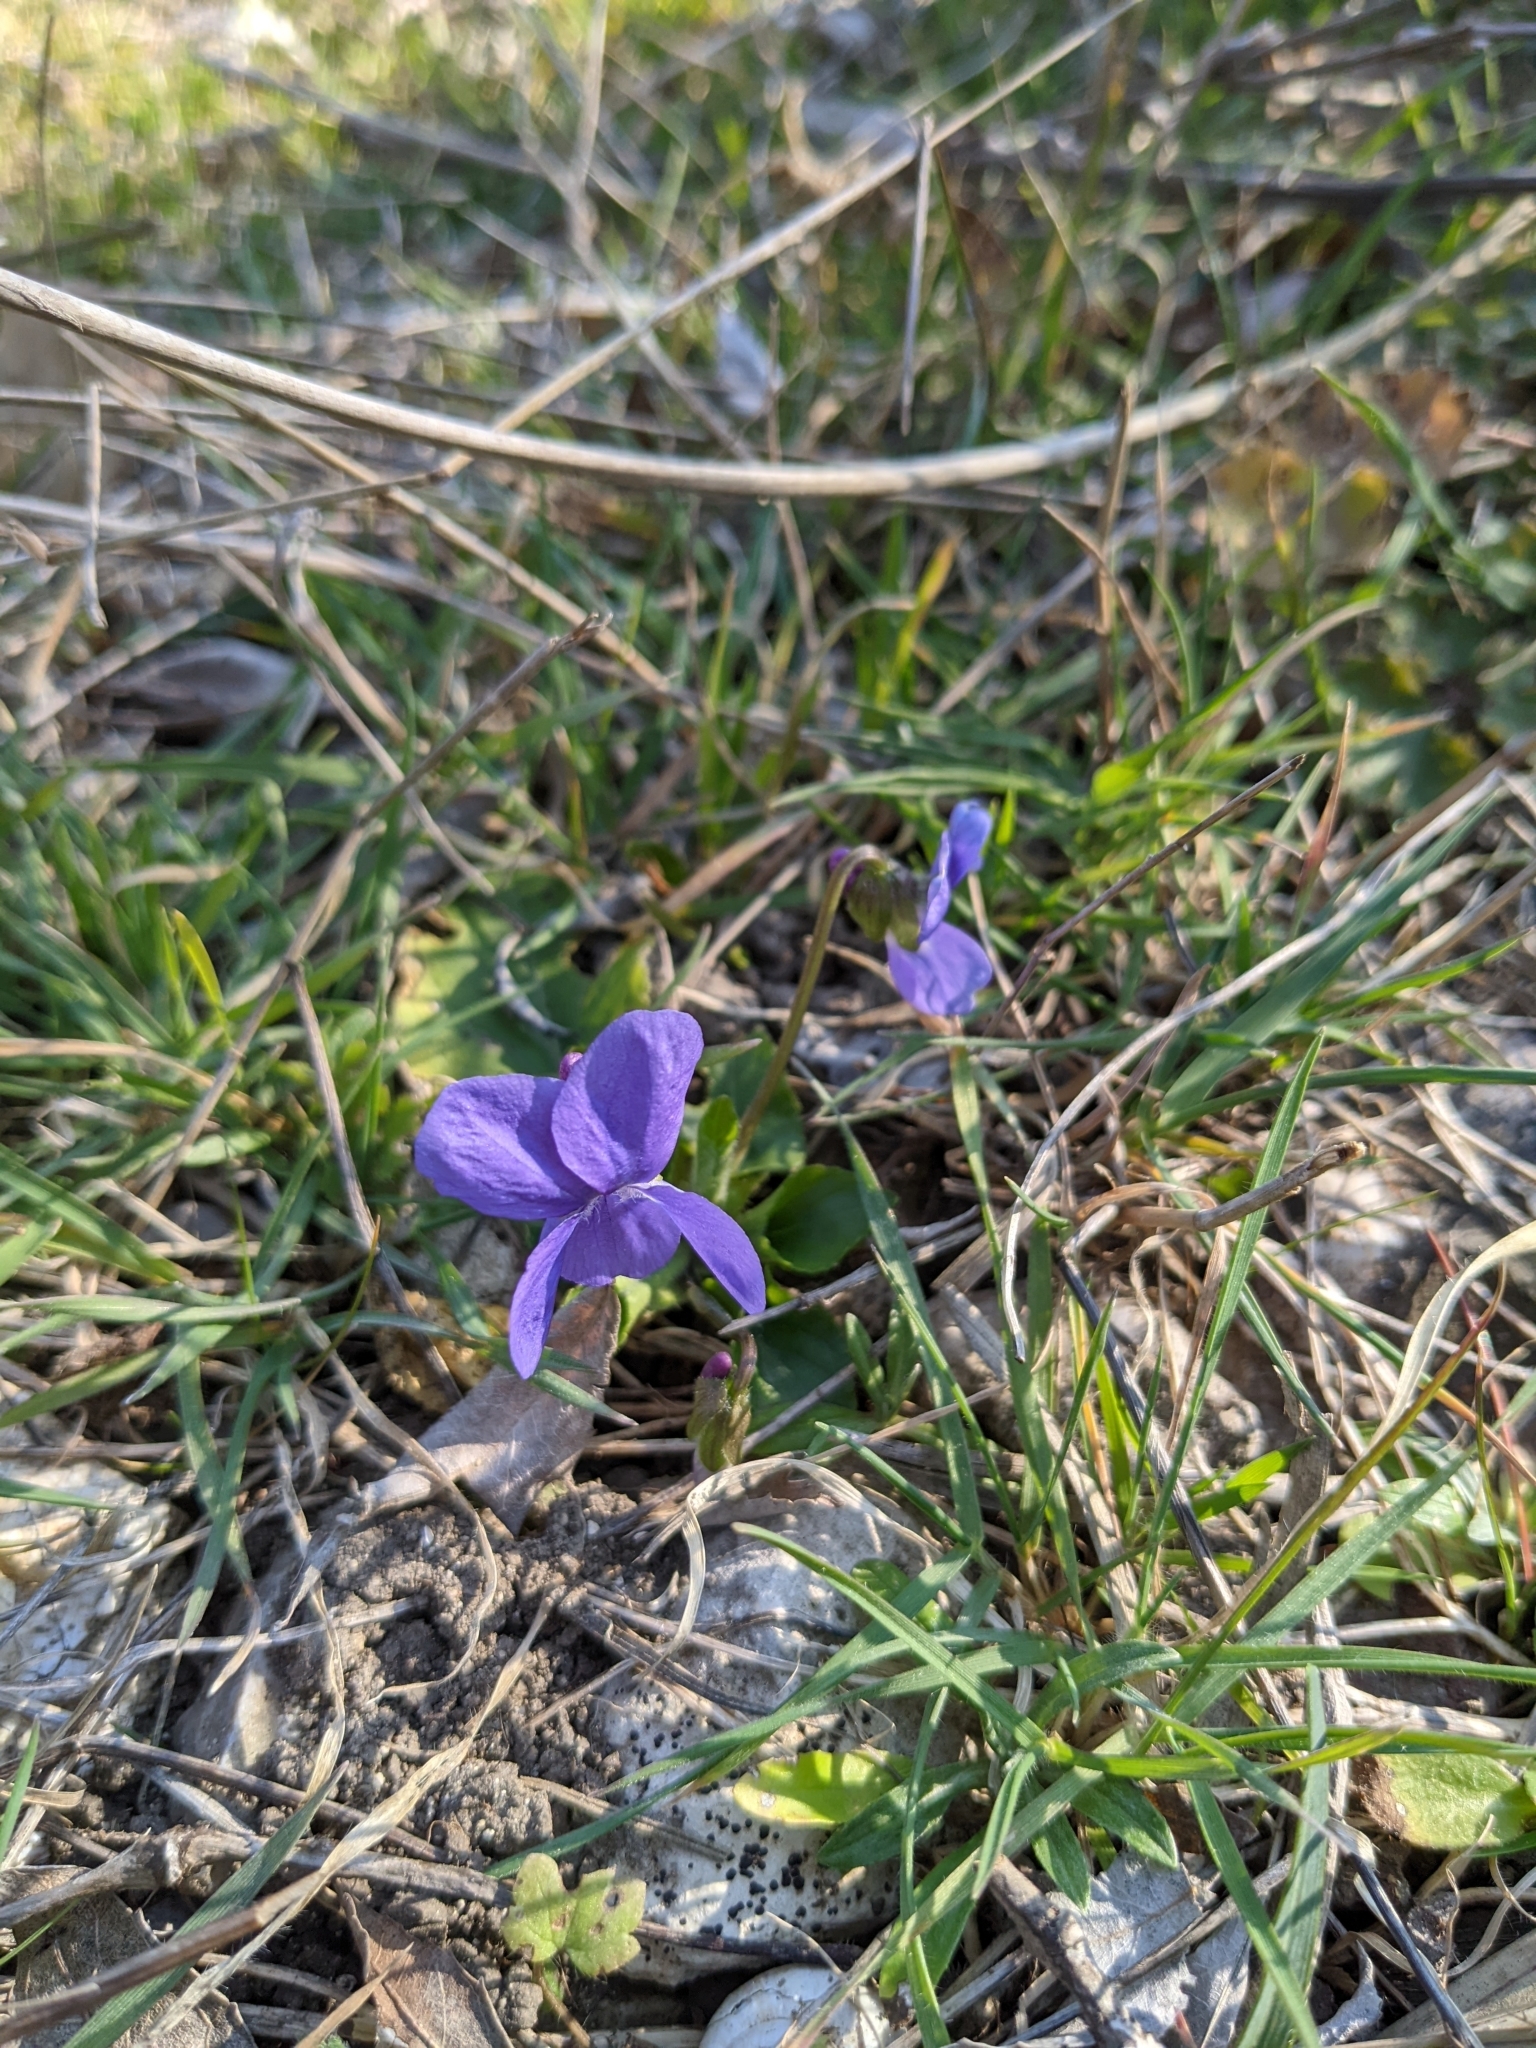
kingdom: Plantae
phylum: Tracheophyta
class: Magnoliopsida
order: Malpighiales
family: Violaceae
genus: Viola
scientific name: Viola alba
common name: White violet
